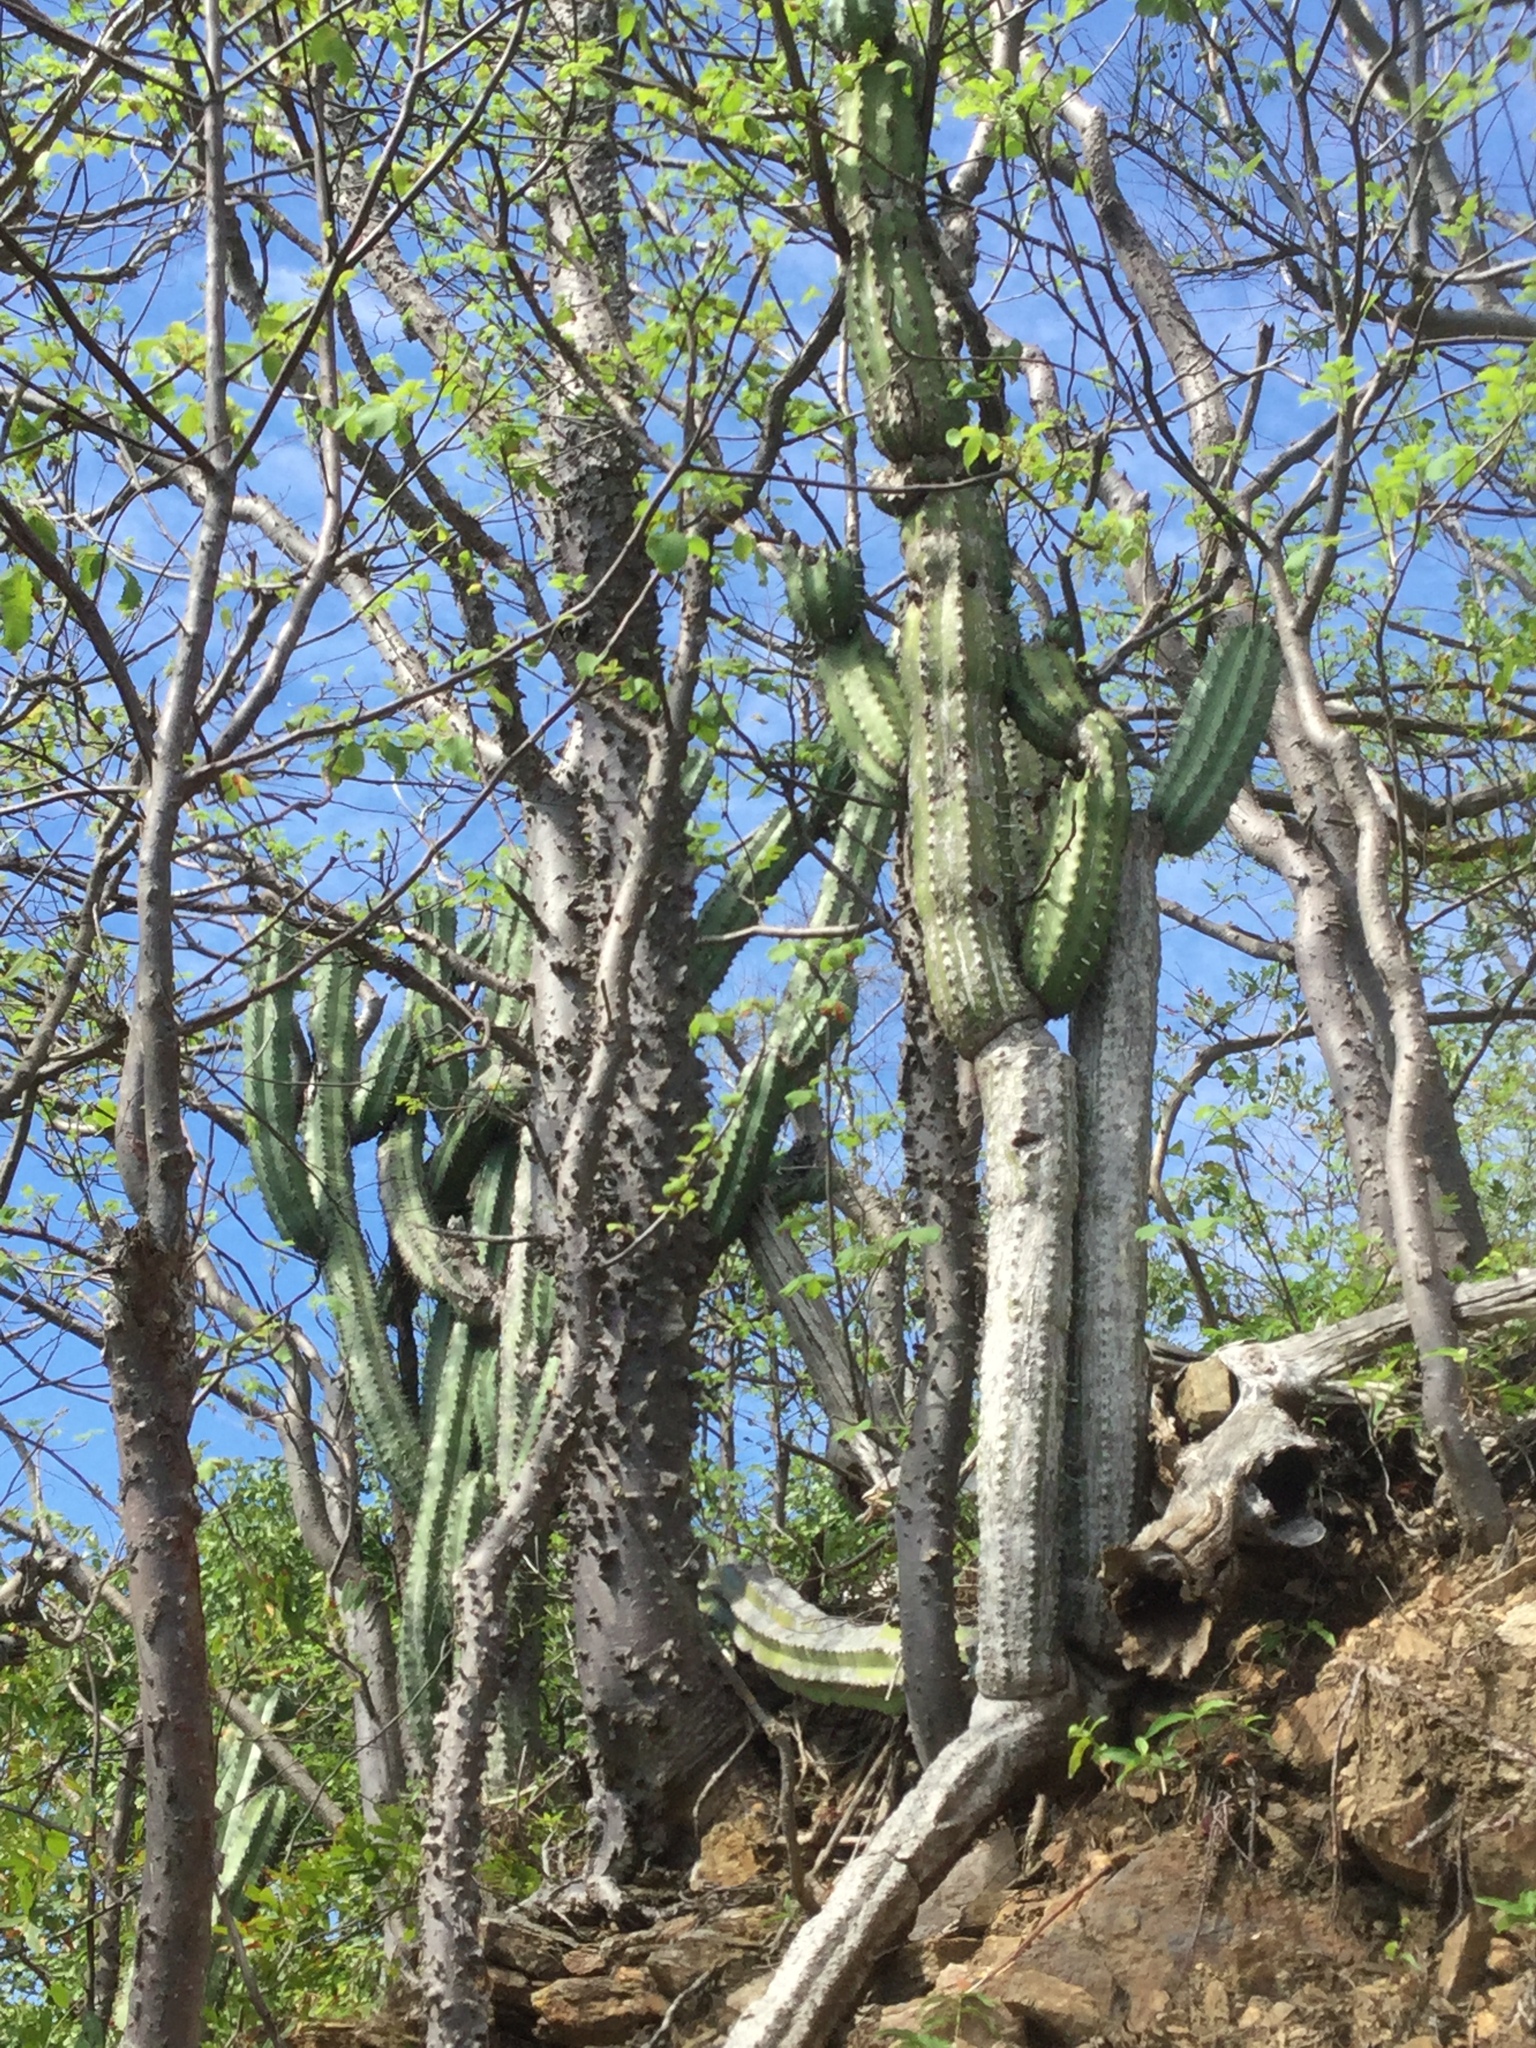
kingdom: Plantae
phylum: Tracheophyta
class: Magnoliopsida
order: Caryophyllales
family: Cactaceae
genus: Stenocereus
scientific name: Stenocereus chacalapensis
